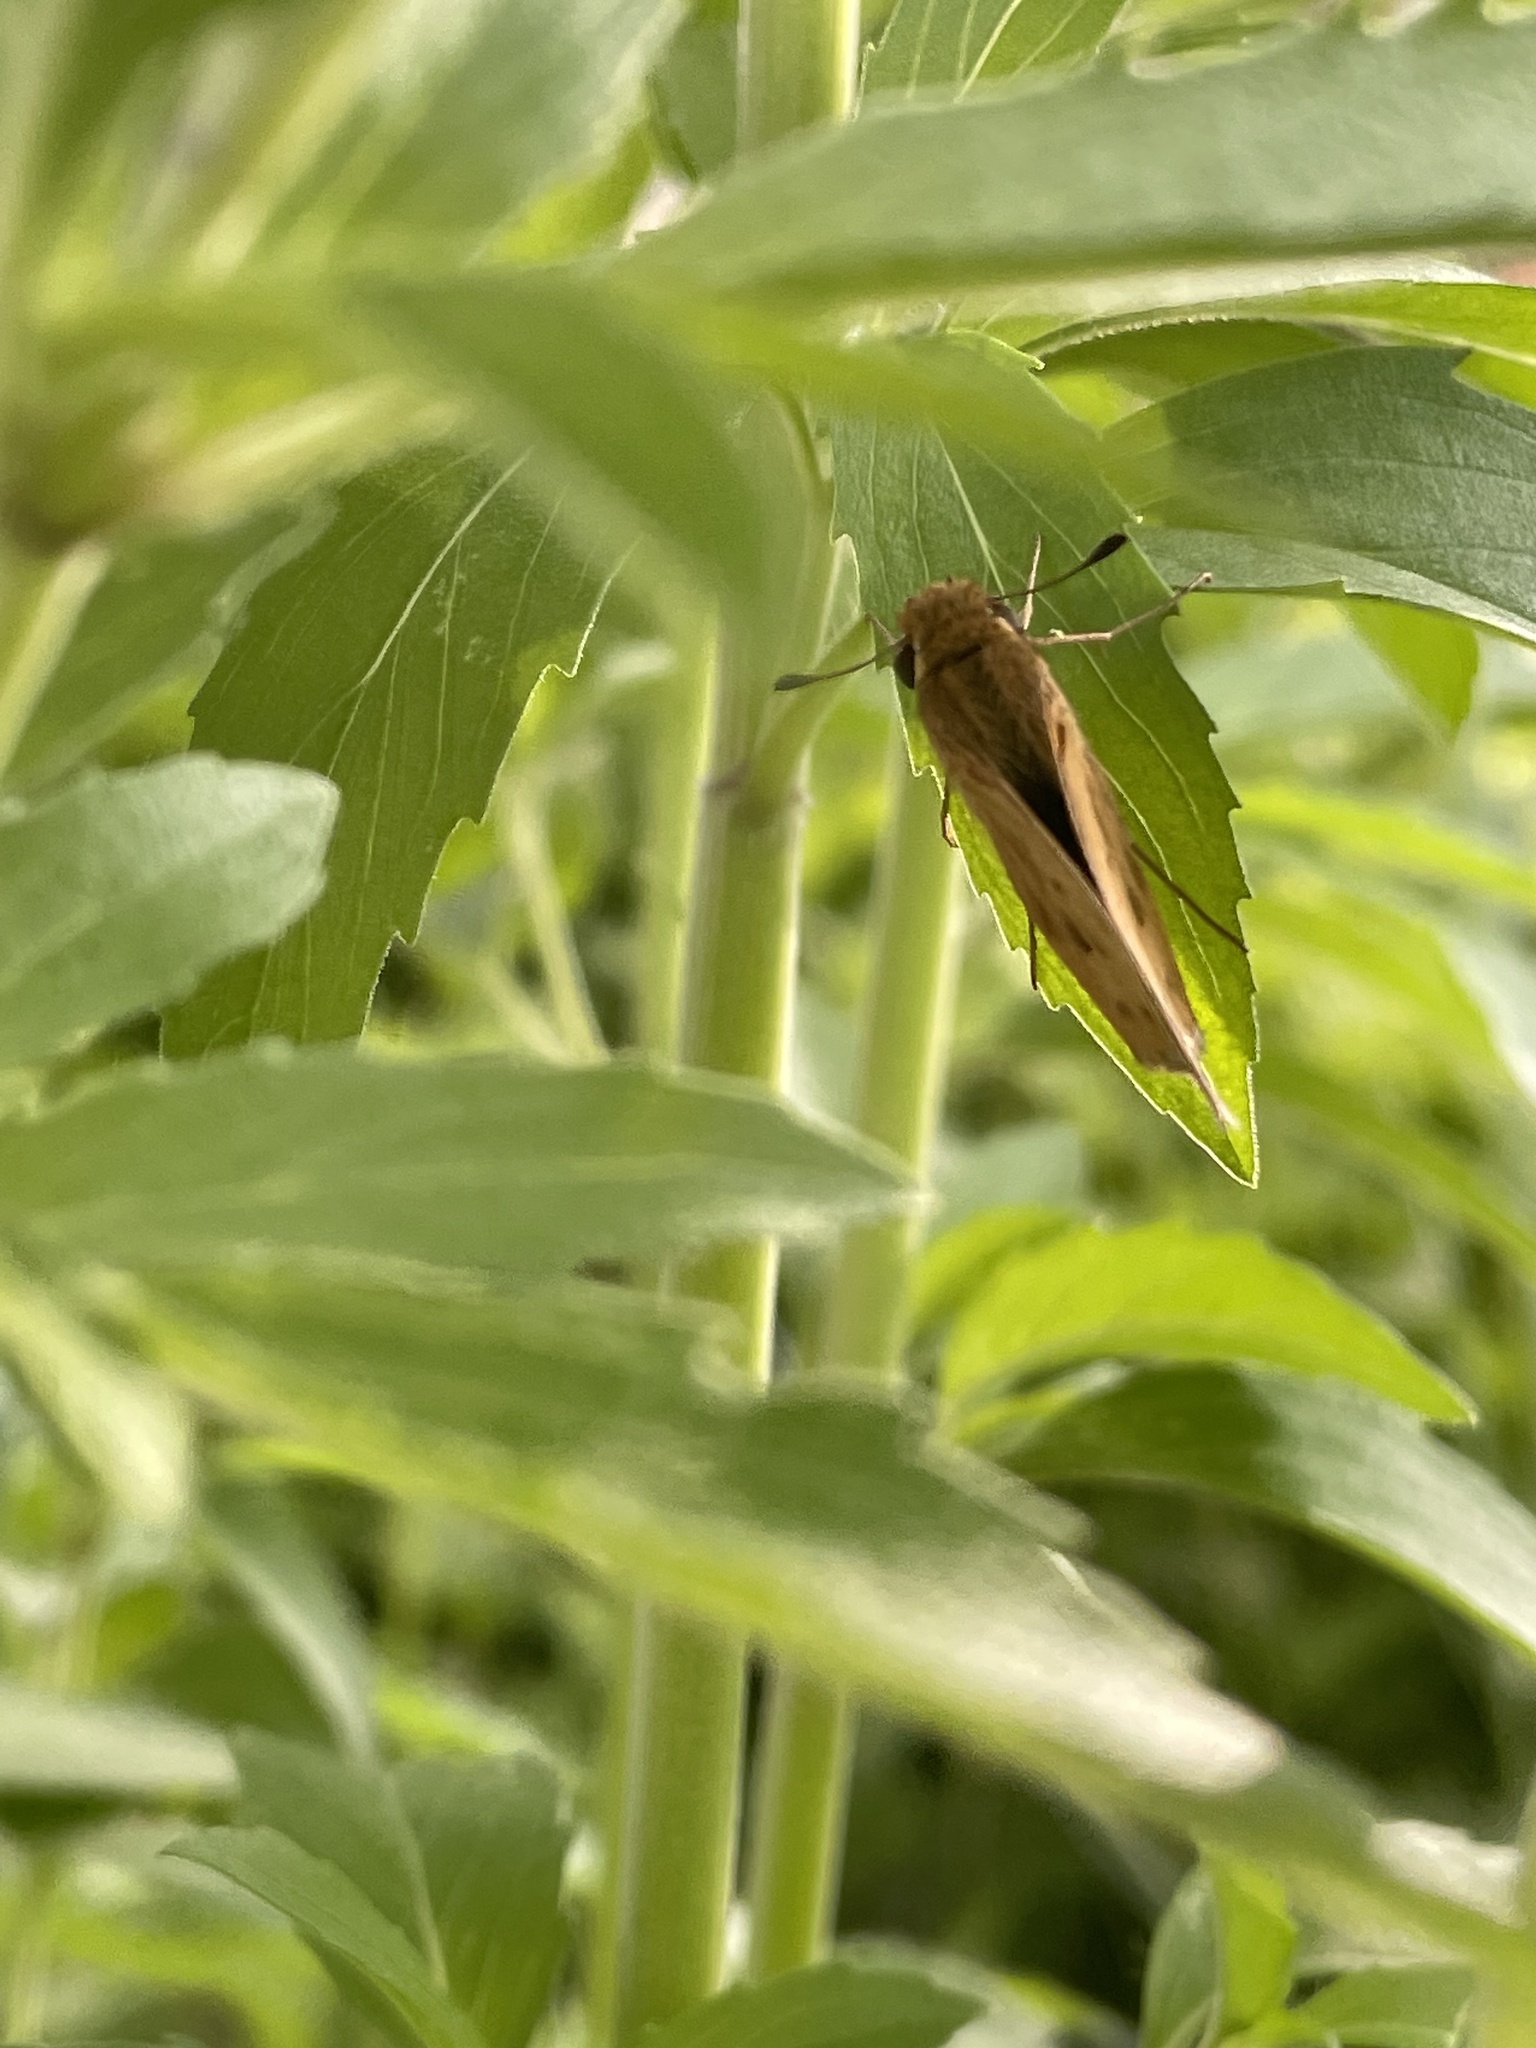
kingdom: Animalia
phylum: Arthropoda
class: Insecta
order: Lepidoptera
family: Hesperiidae
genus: Hylephila
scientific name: Hylephila phyleus
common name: Fiery skipper
